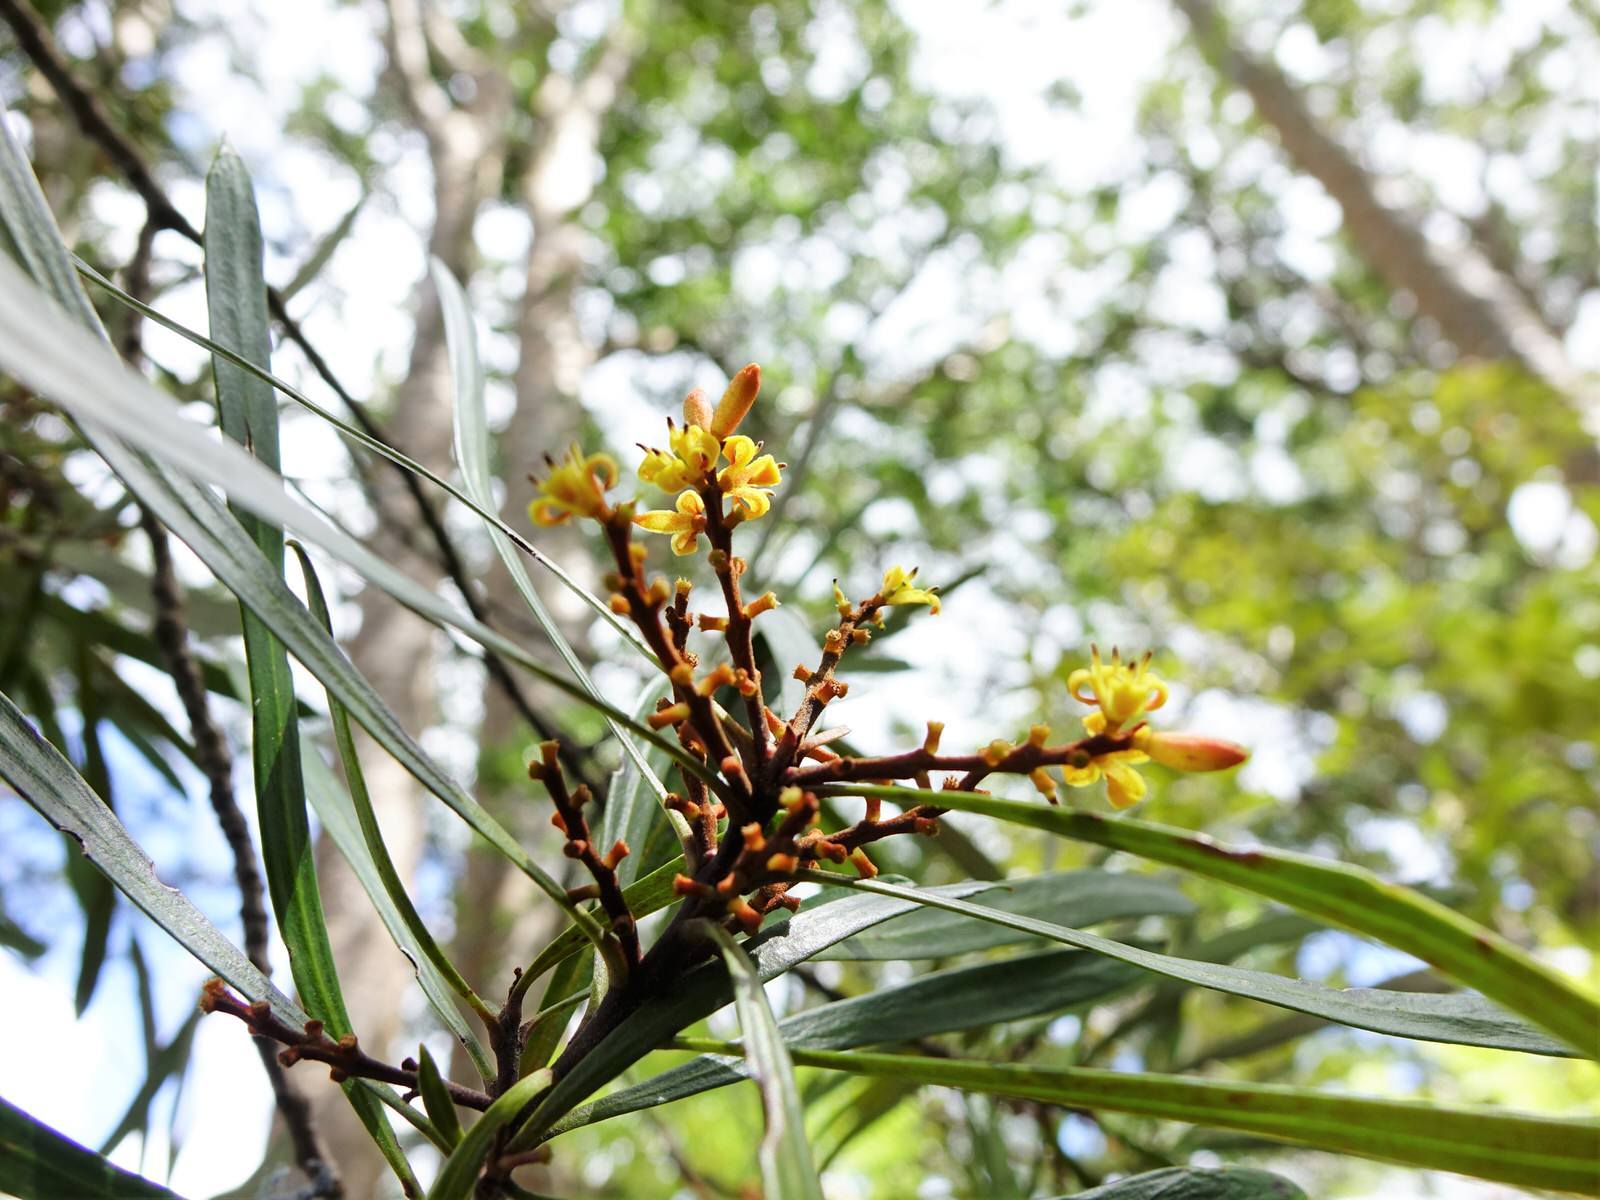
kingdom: Plantae
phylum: Tracheophyta
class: Magnoliopsida
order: Proteales
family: Proteaceae
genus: Toronia
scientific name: Toronia toru
